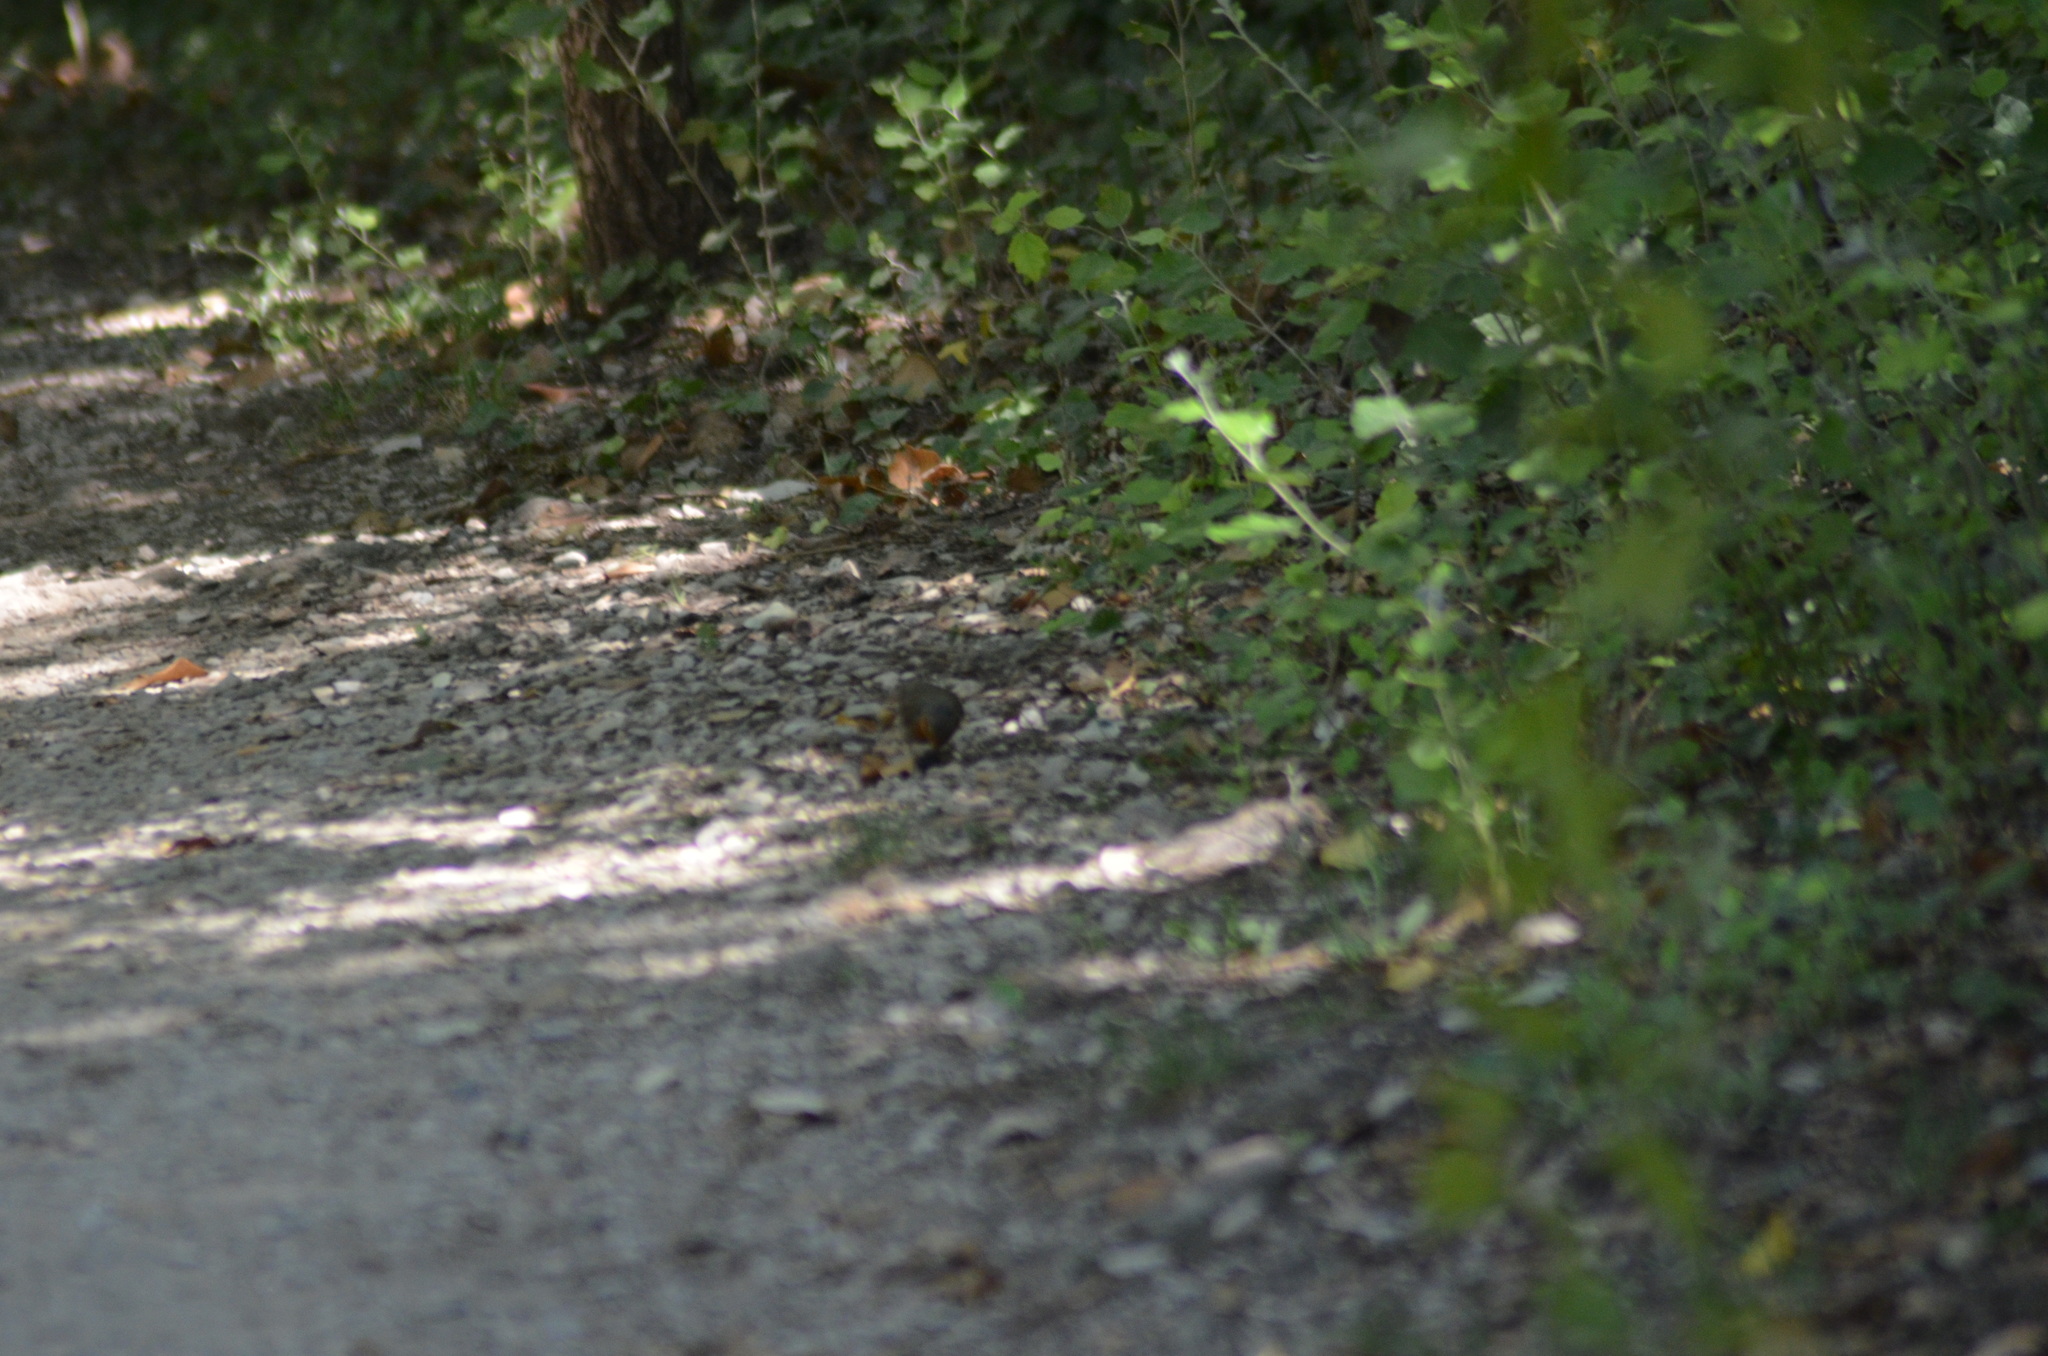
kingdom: Animalia
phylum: Chordata
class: Aves
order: Passeriformes
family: Muscicapidae
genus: Erithacus
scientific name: Erithacus rubecula
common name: European robin
